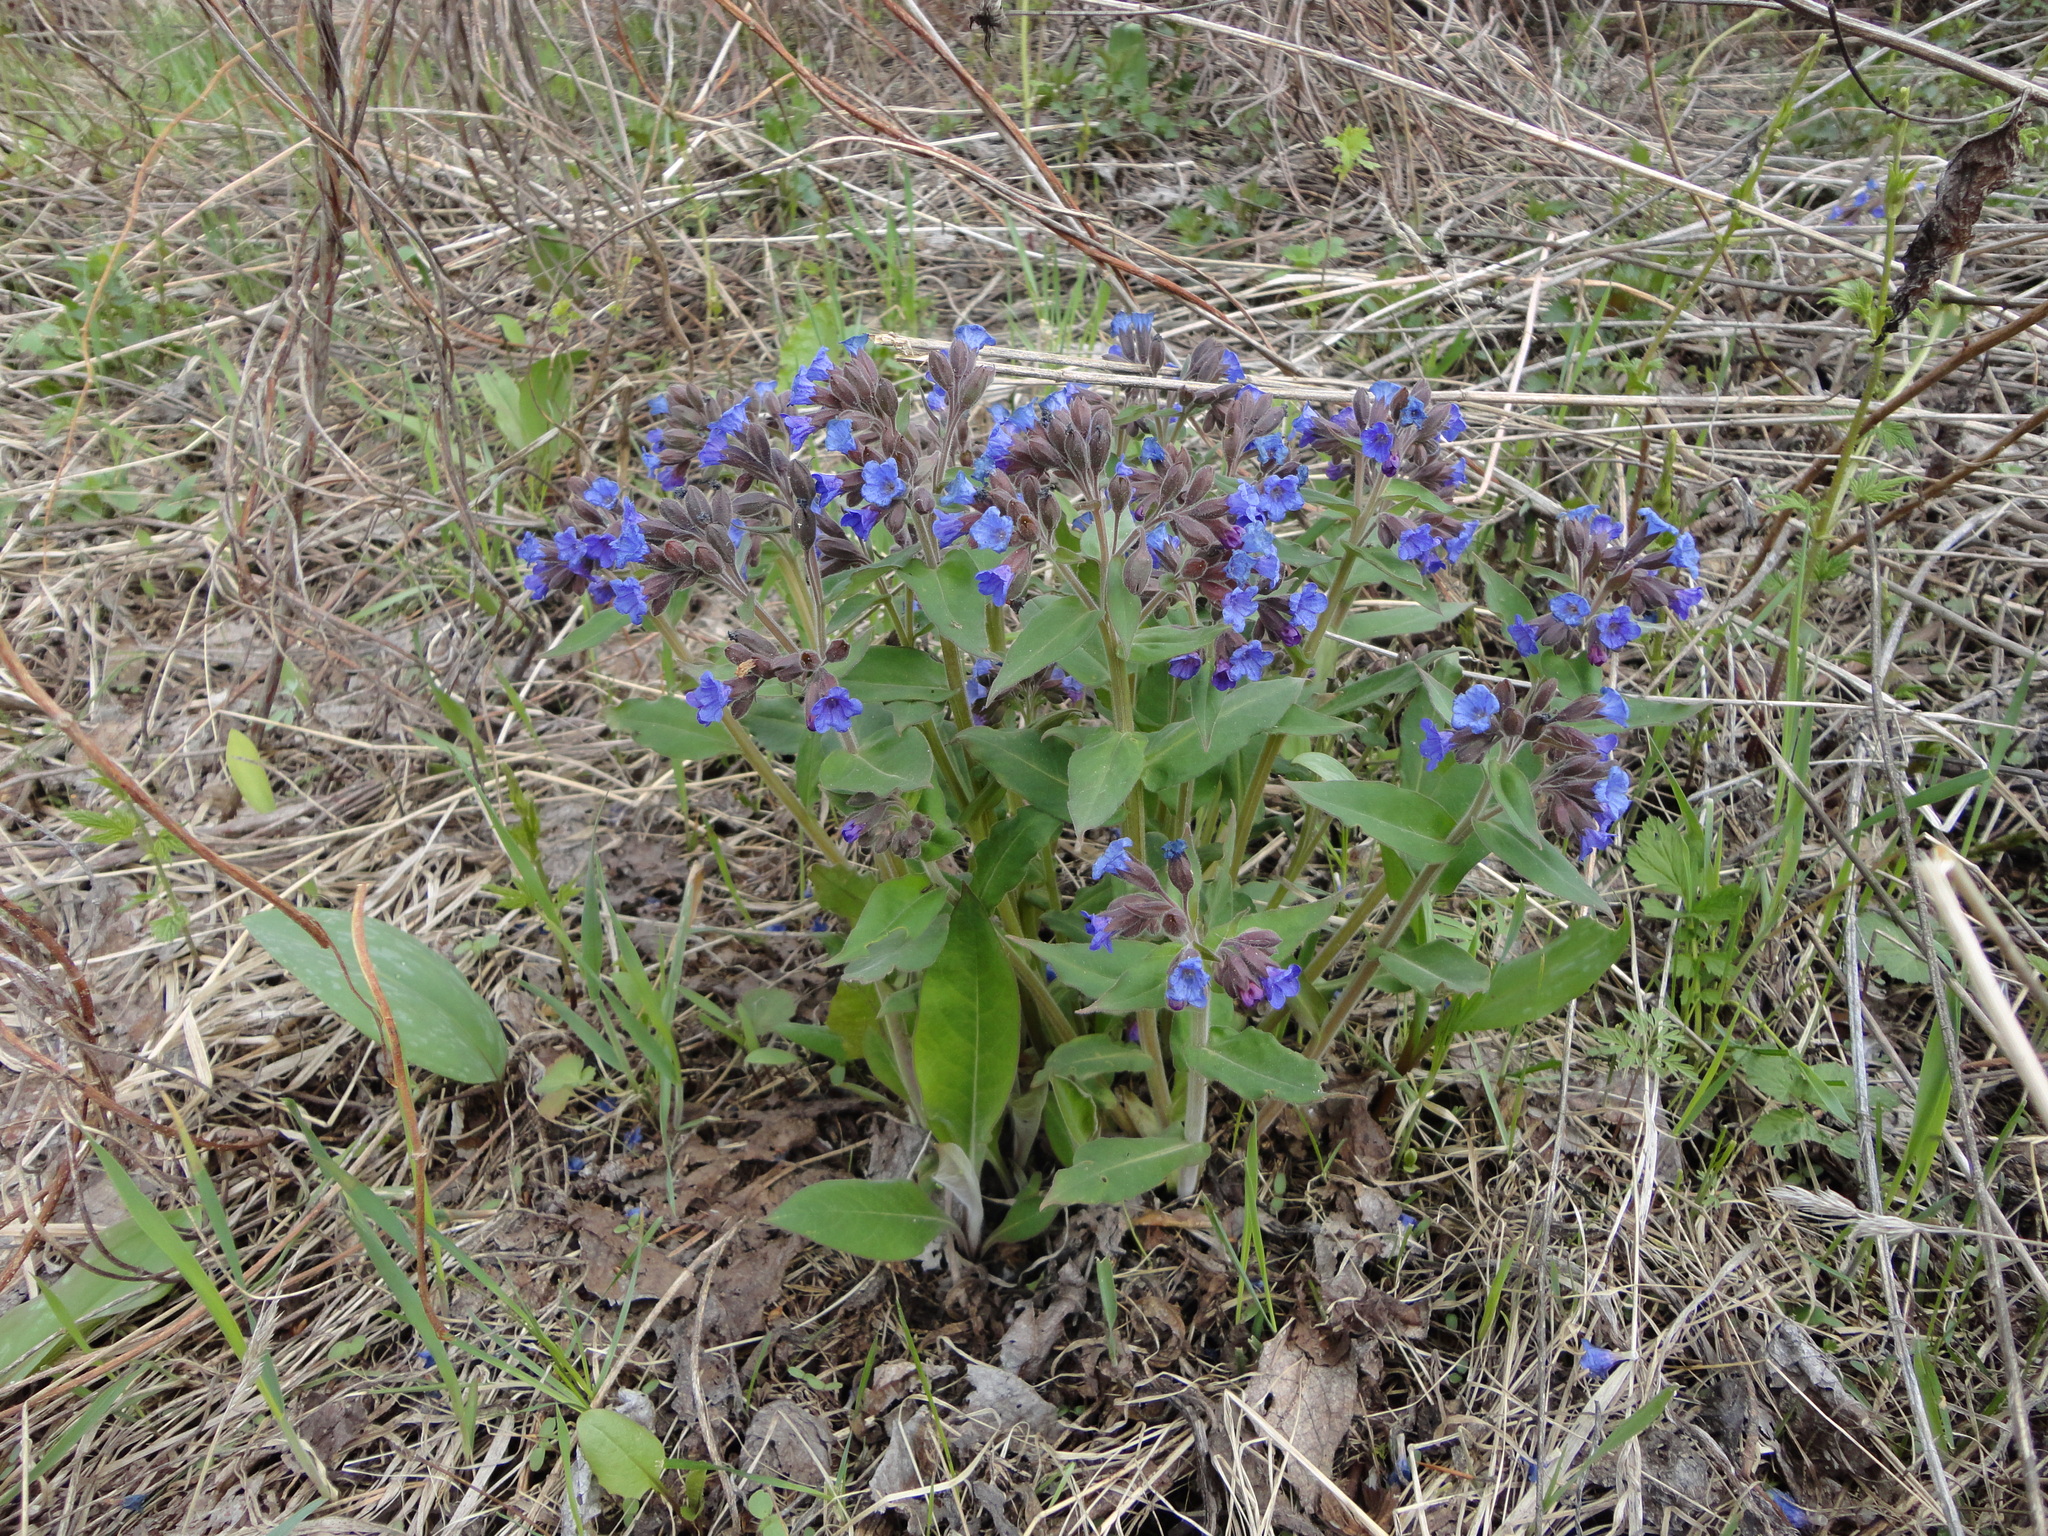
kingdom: Plantae
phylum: Tracheophyta
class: Magnoliopsida
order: Boraginales
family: Boraginaceae
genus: Pulmonaria
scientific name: Pulmonaria mollis
